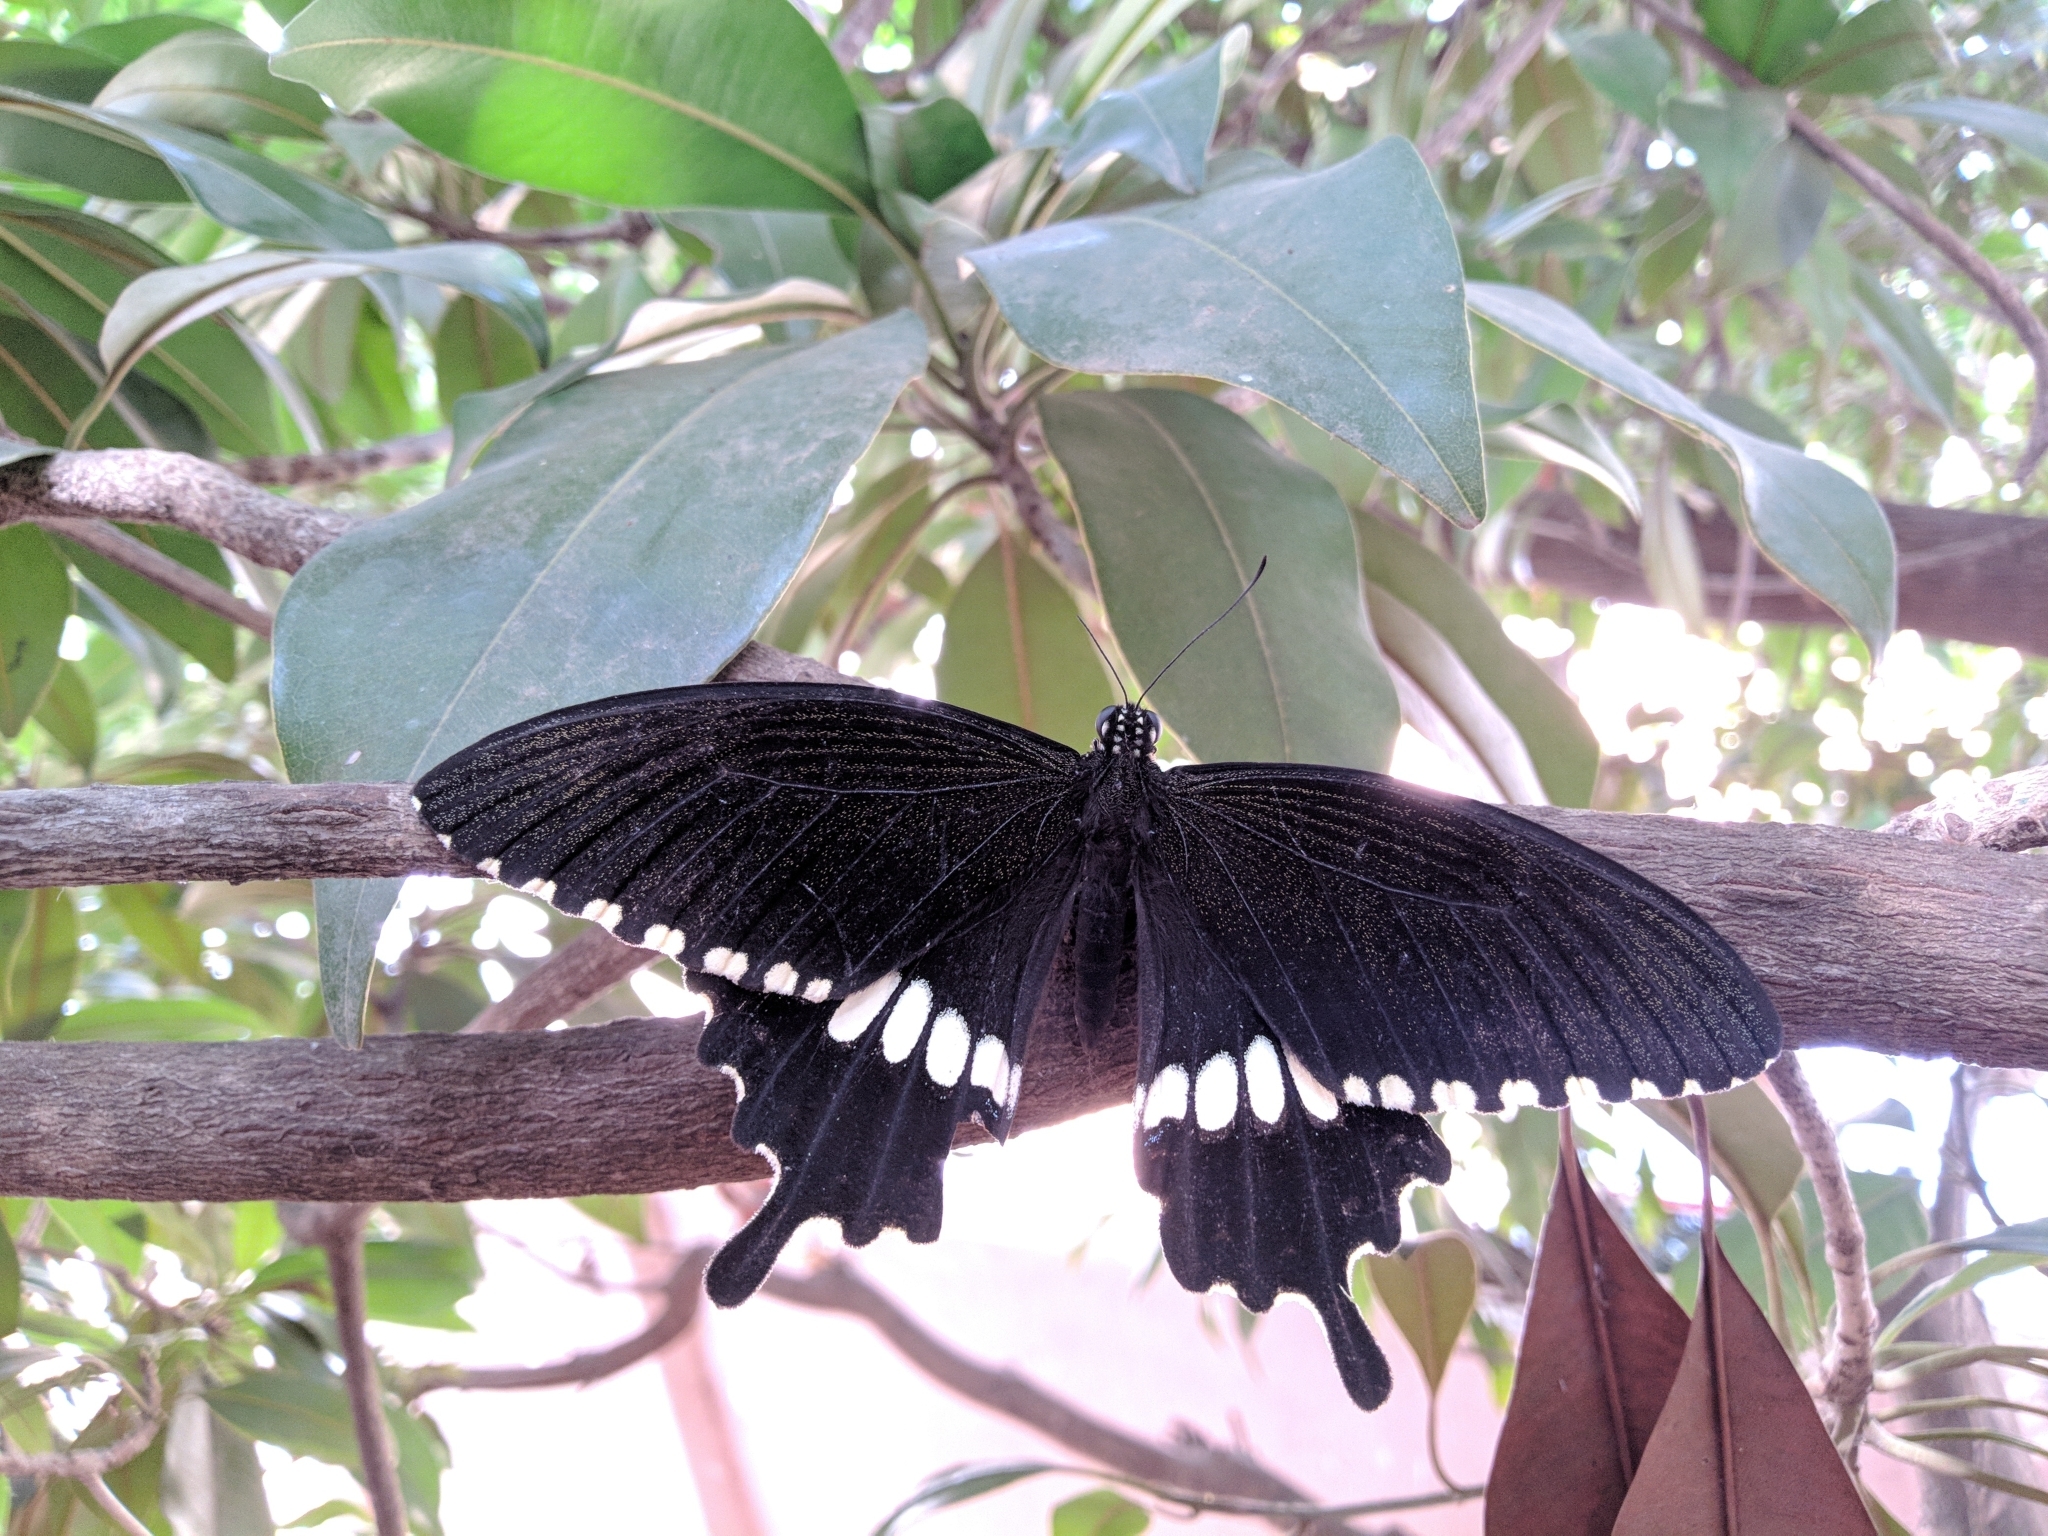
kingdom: Animalia
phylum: Arthropoda
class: Insecta
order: Lepidoptera
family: Papilionidae
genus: Papilio
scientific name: Papilio polytes
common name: Common mormon
